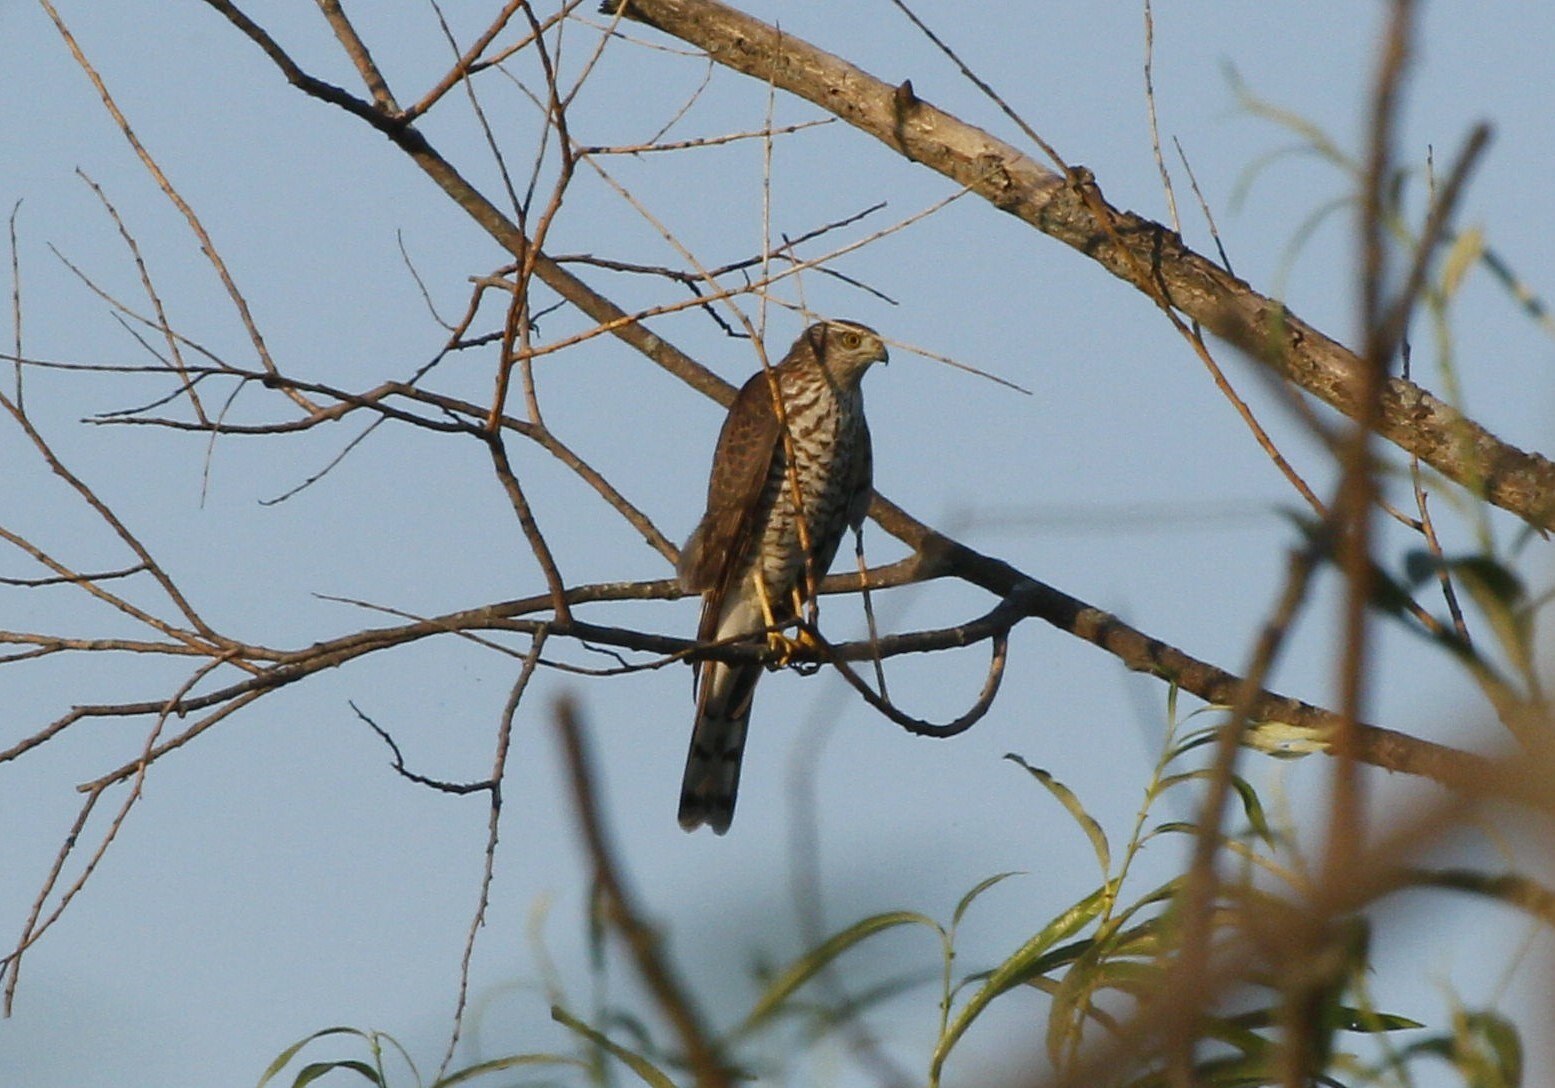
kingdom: Animalia
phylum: Chordata
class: Aves
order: Accipitriformes
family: Accipitridae
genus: Accipiter
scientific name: Accipiter nisus
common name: Eurasian sparrowhawk
